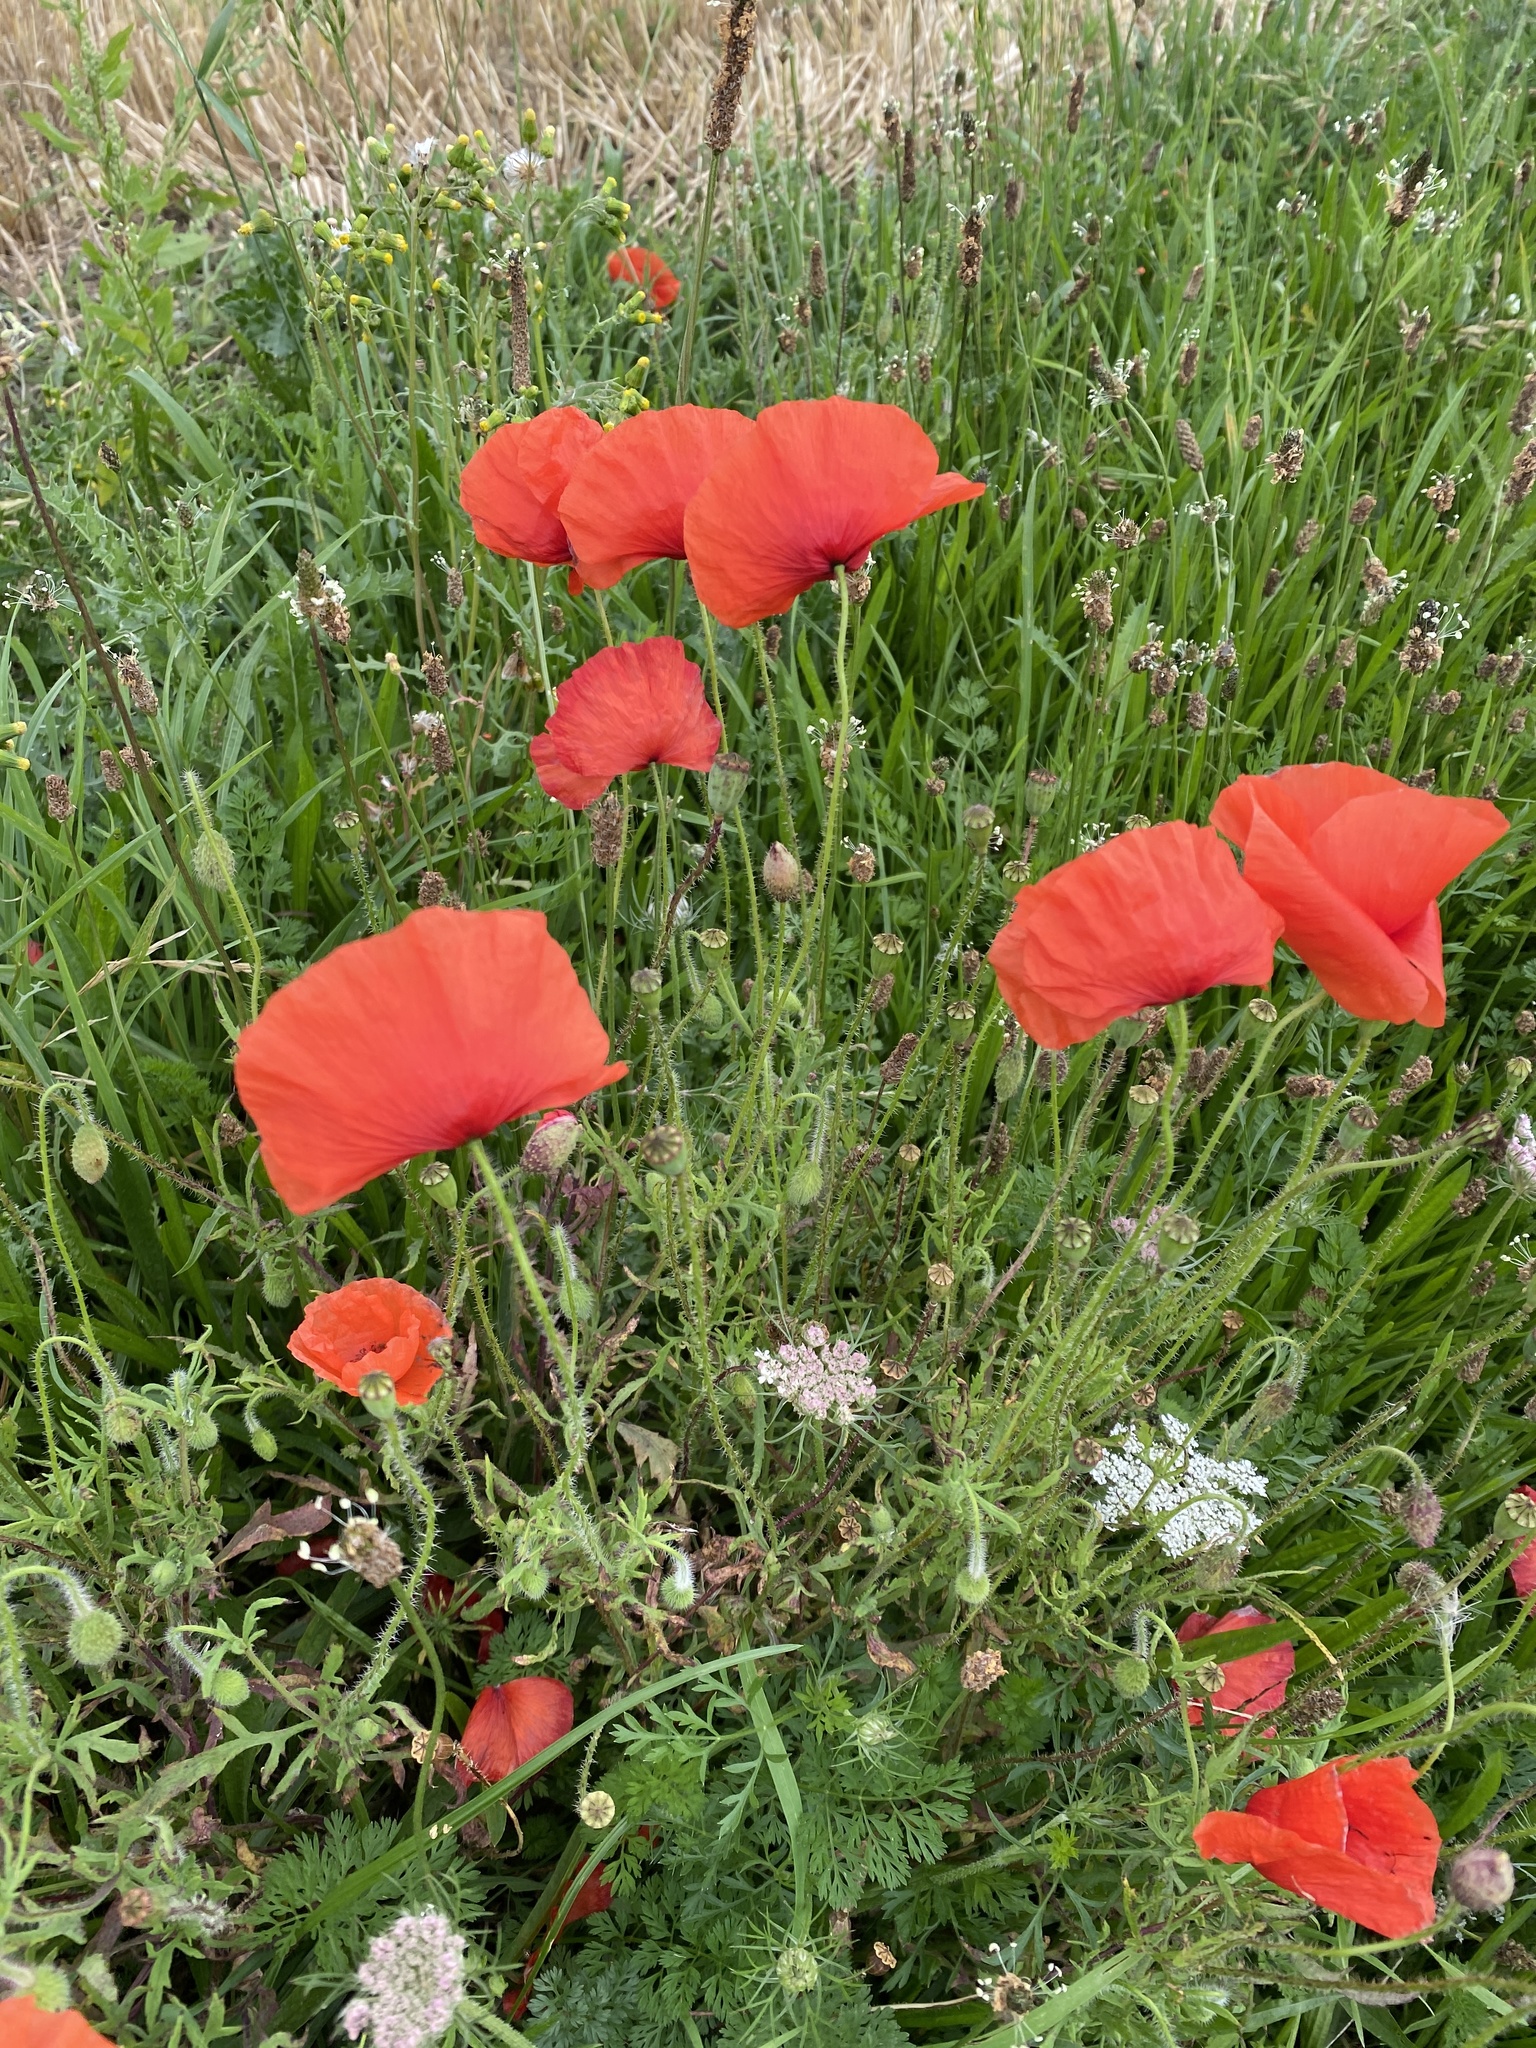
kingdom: Plantae
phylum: Tracheophyta
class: Magnoliopsida
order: Ranunculales
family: Papaveraceae
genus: Papaver
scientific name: Papaver rhoeas
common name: Corn poppy
